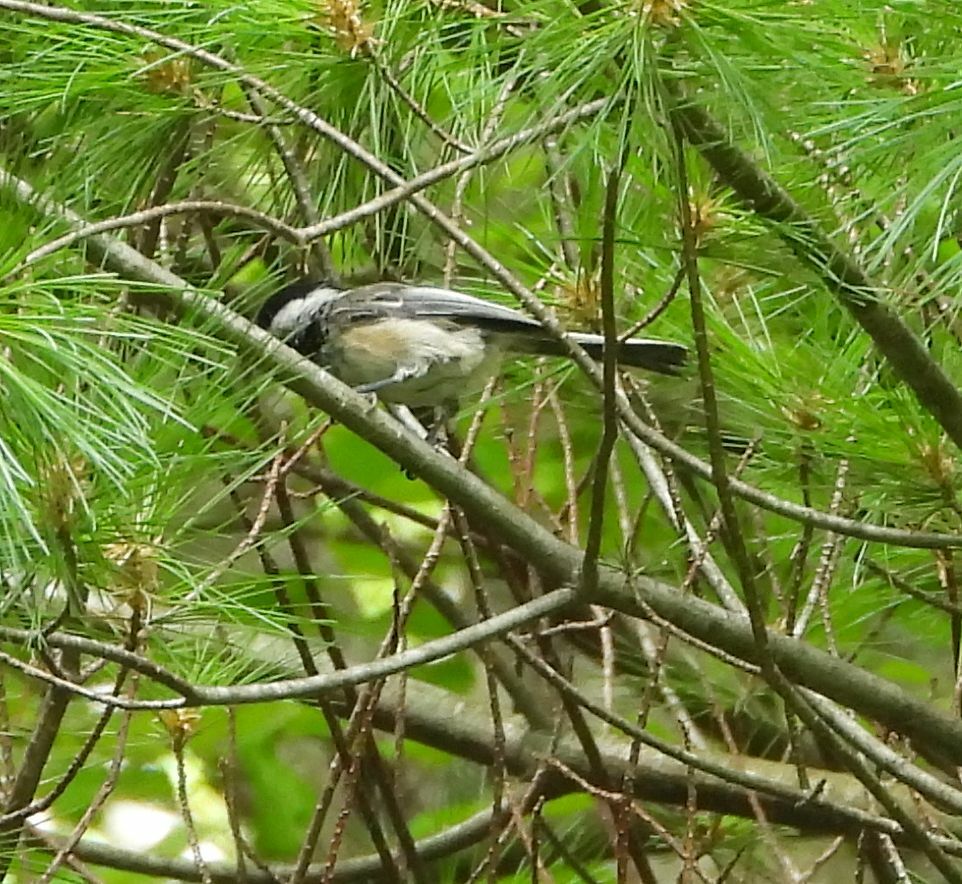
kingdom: Animalia
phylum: Chordata
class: Aves
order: Passeriformes
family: Paridae
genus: Poecile
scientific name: Poecile atricapillus
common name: Black-capped chickadee
